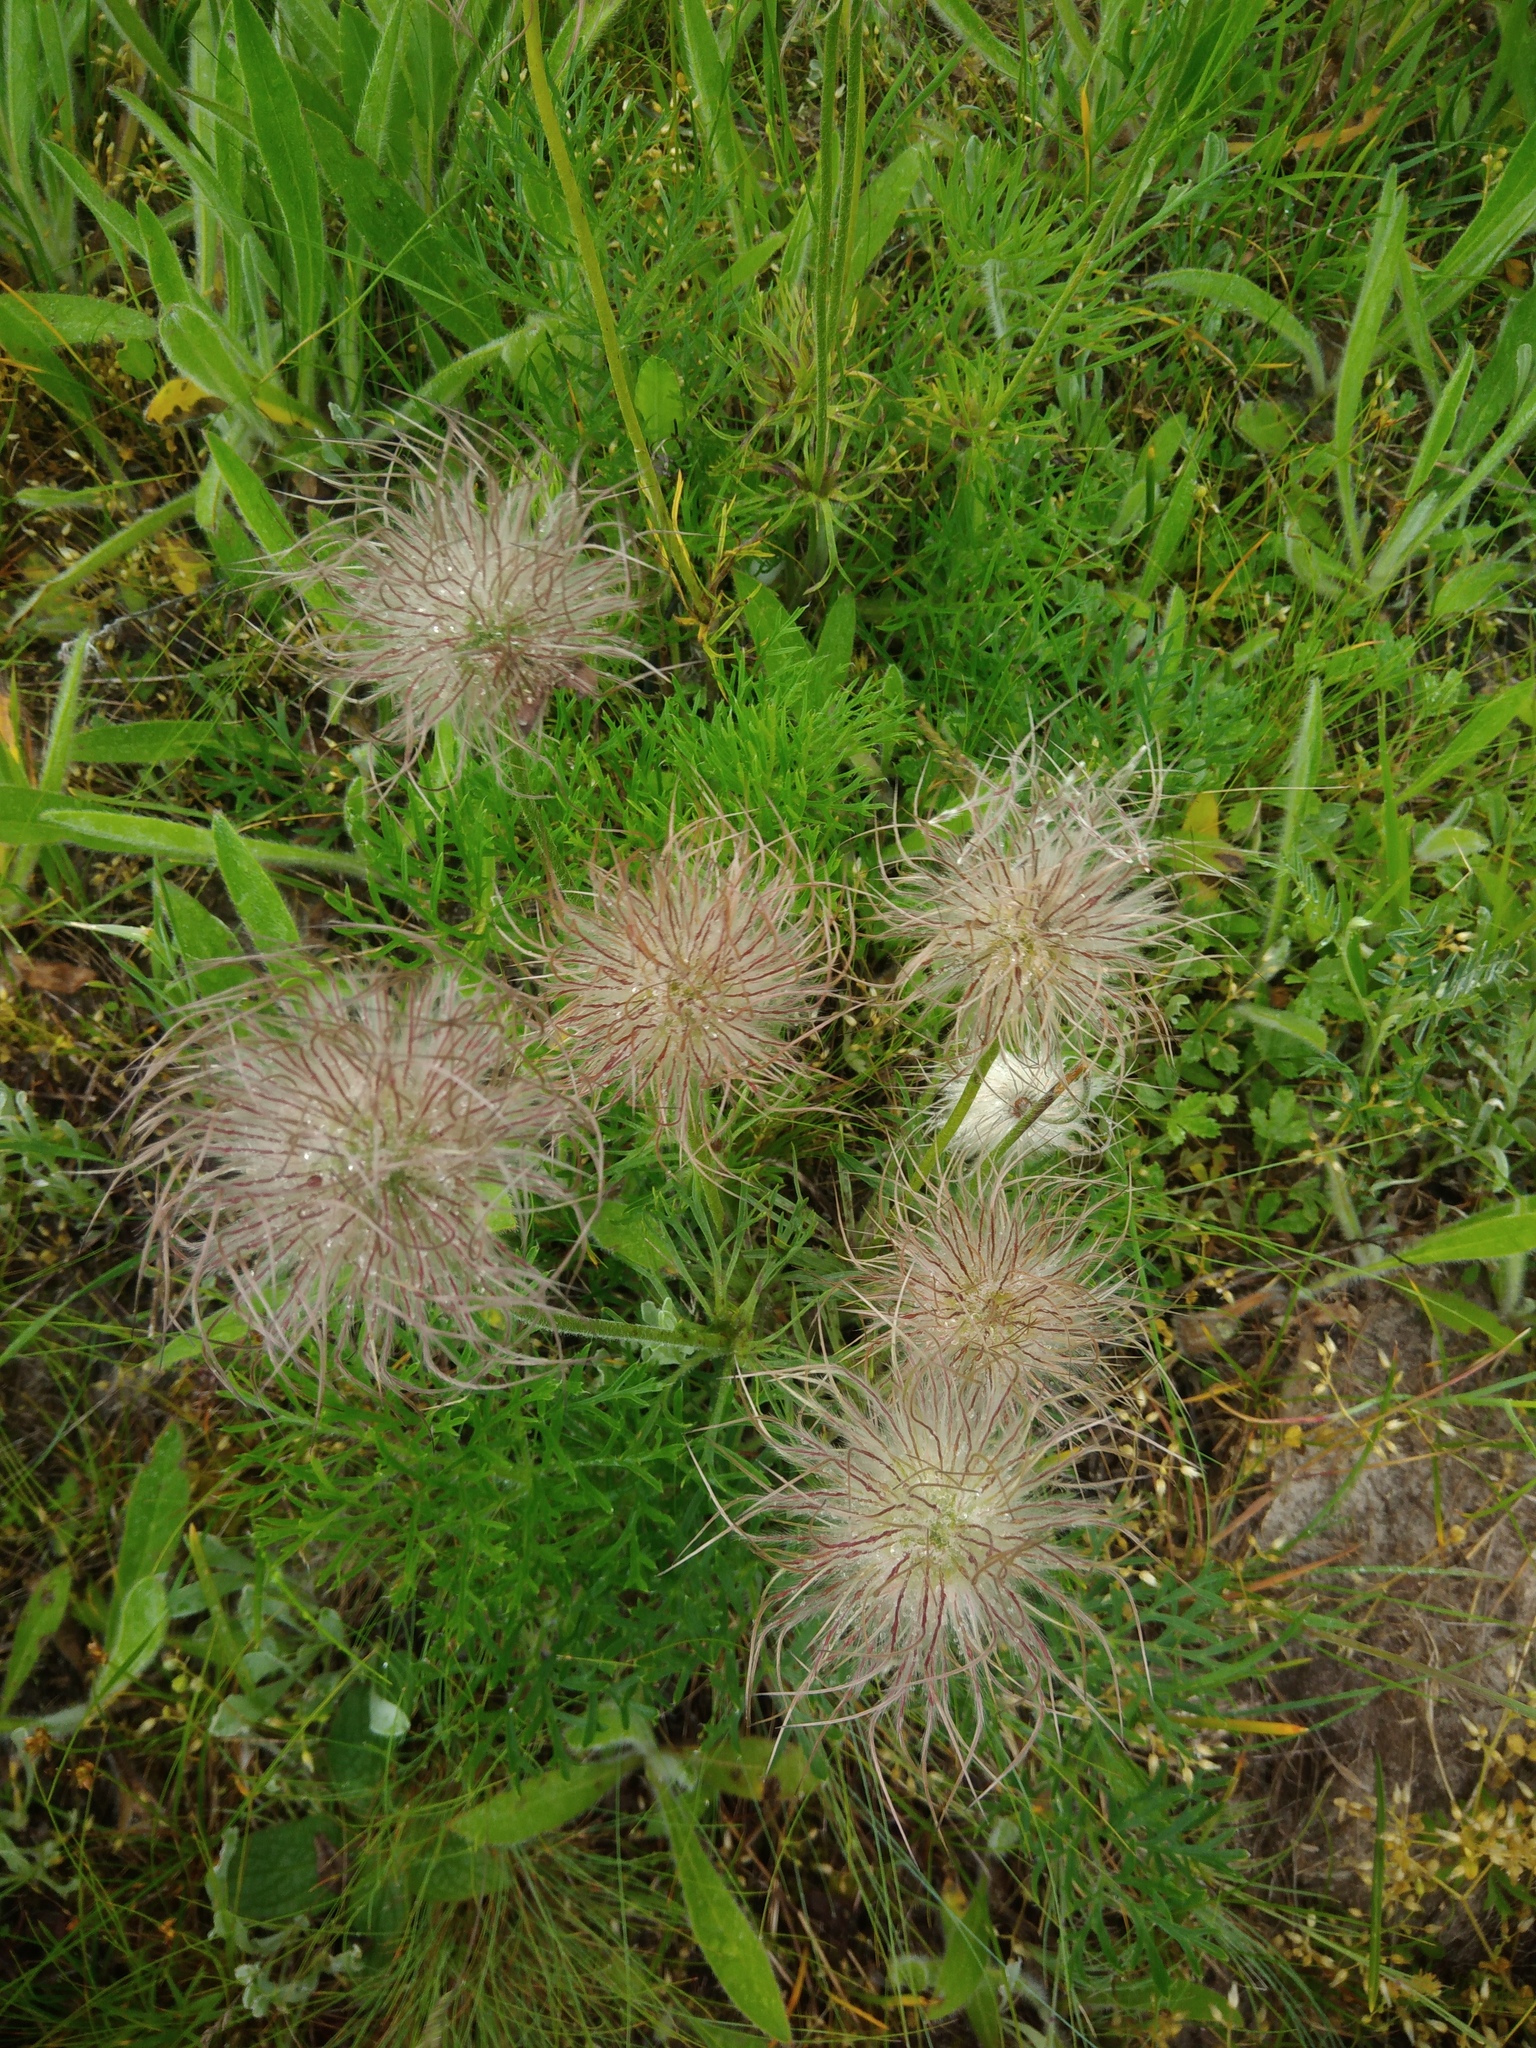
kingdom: Plantae
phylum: Tracheophyta
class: Magnoliopsida
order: Ranunculales
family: Ranunculaceae
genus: Pulsatilla
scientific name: Pulsatilla pratensis
